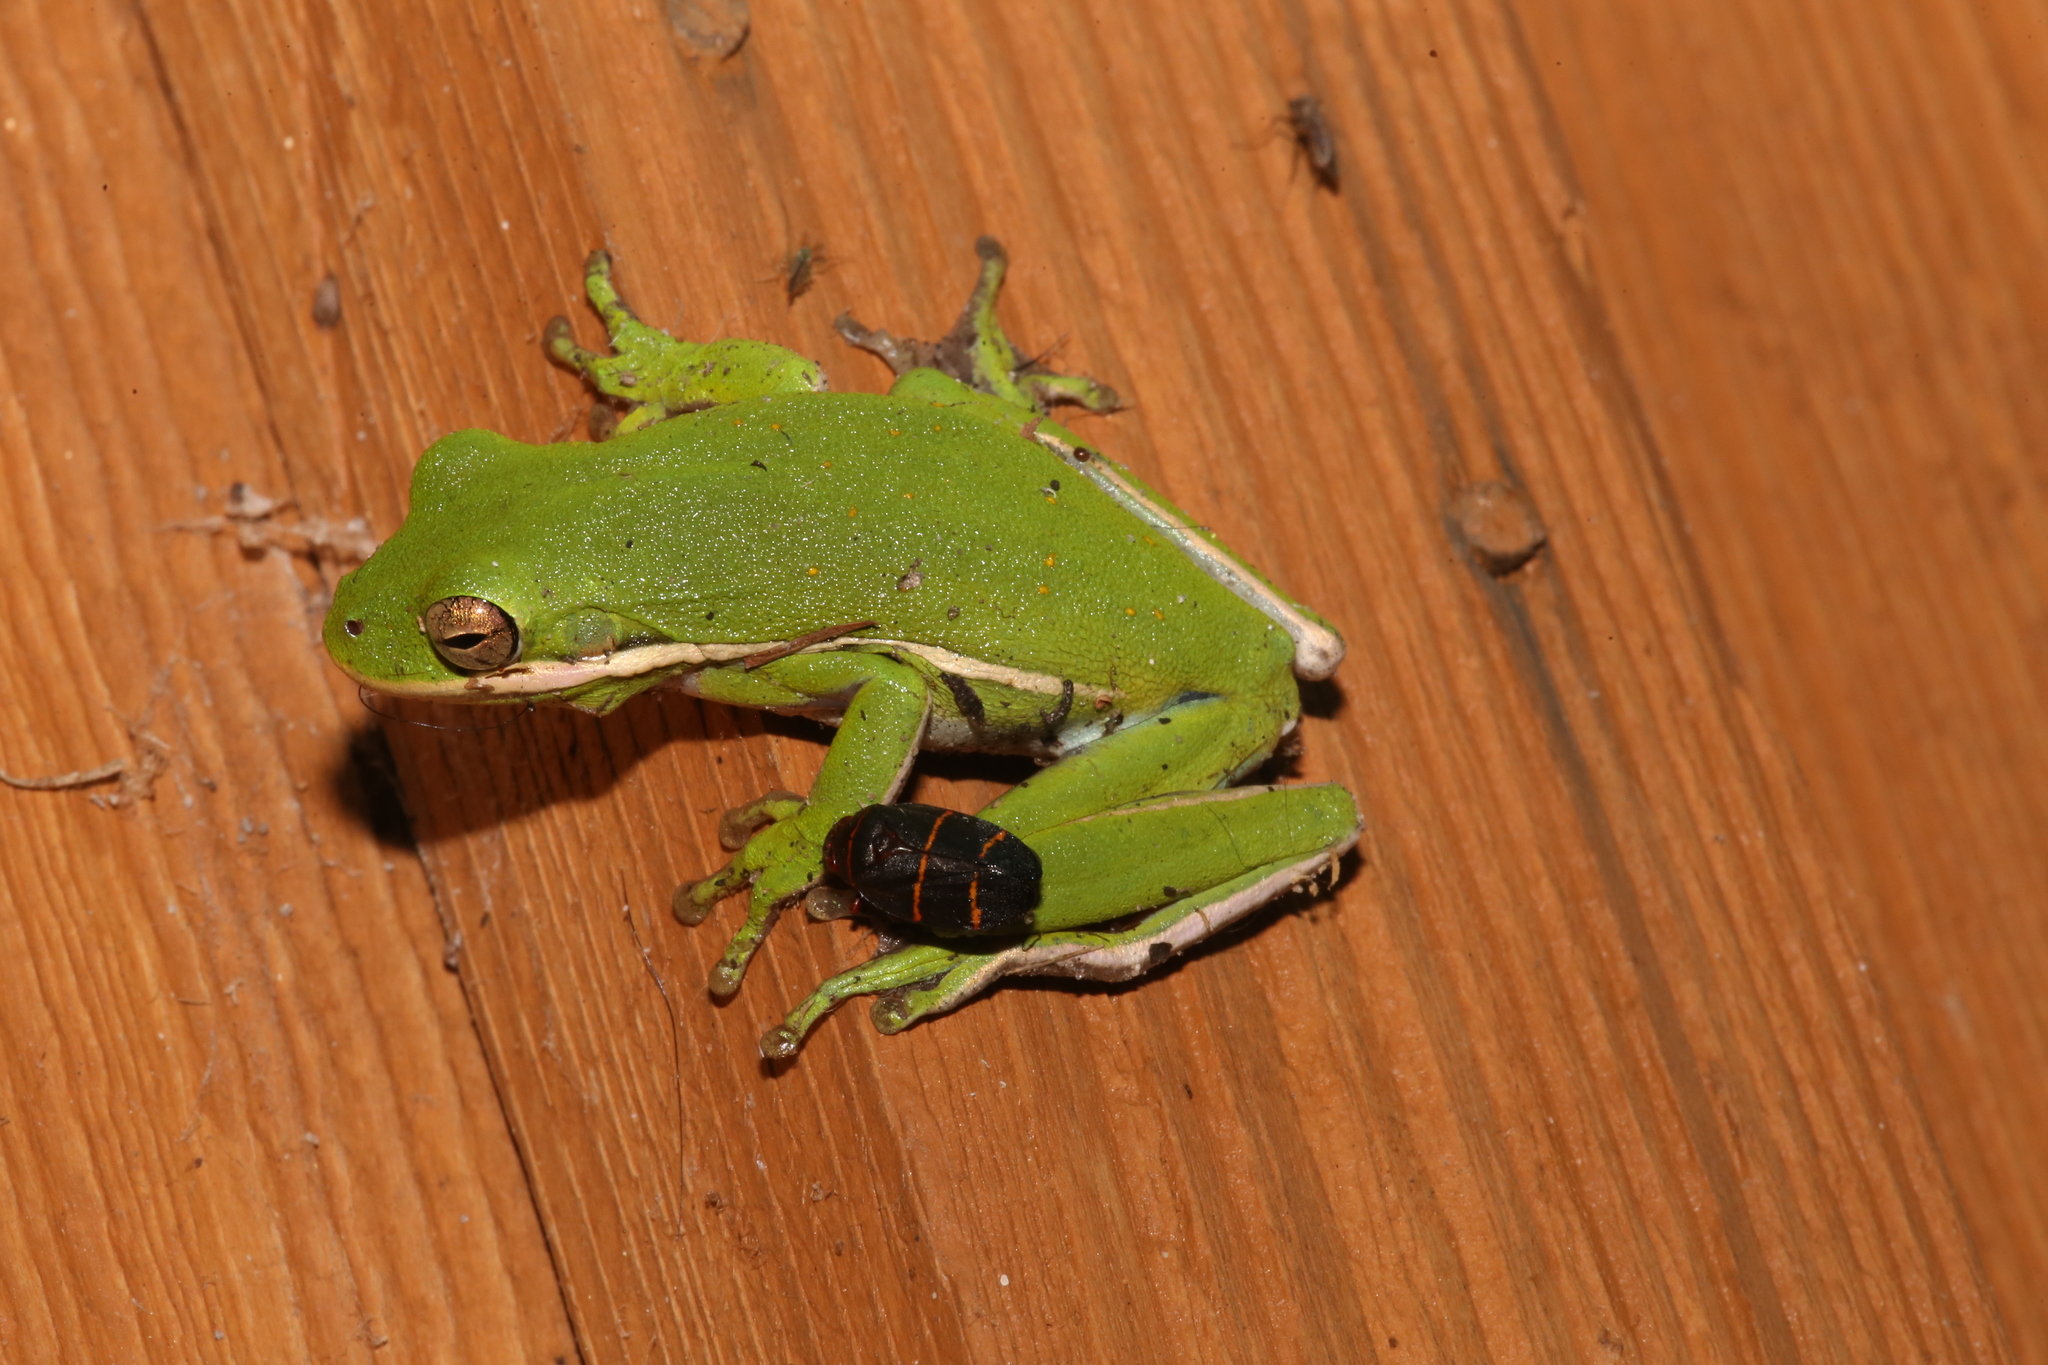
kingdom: Animalia
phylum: Chordata
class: Amphibia
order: Anura
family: Hylidae
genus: Dryophytes
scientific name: Dryophytes cinereus
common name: Green treefrog
